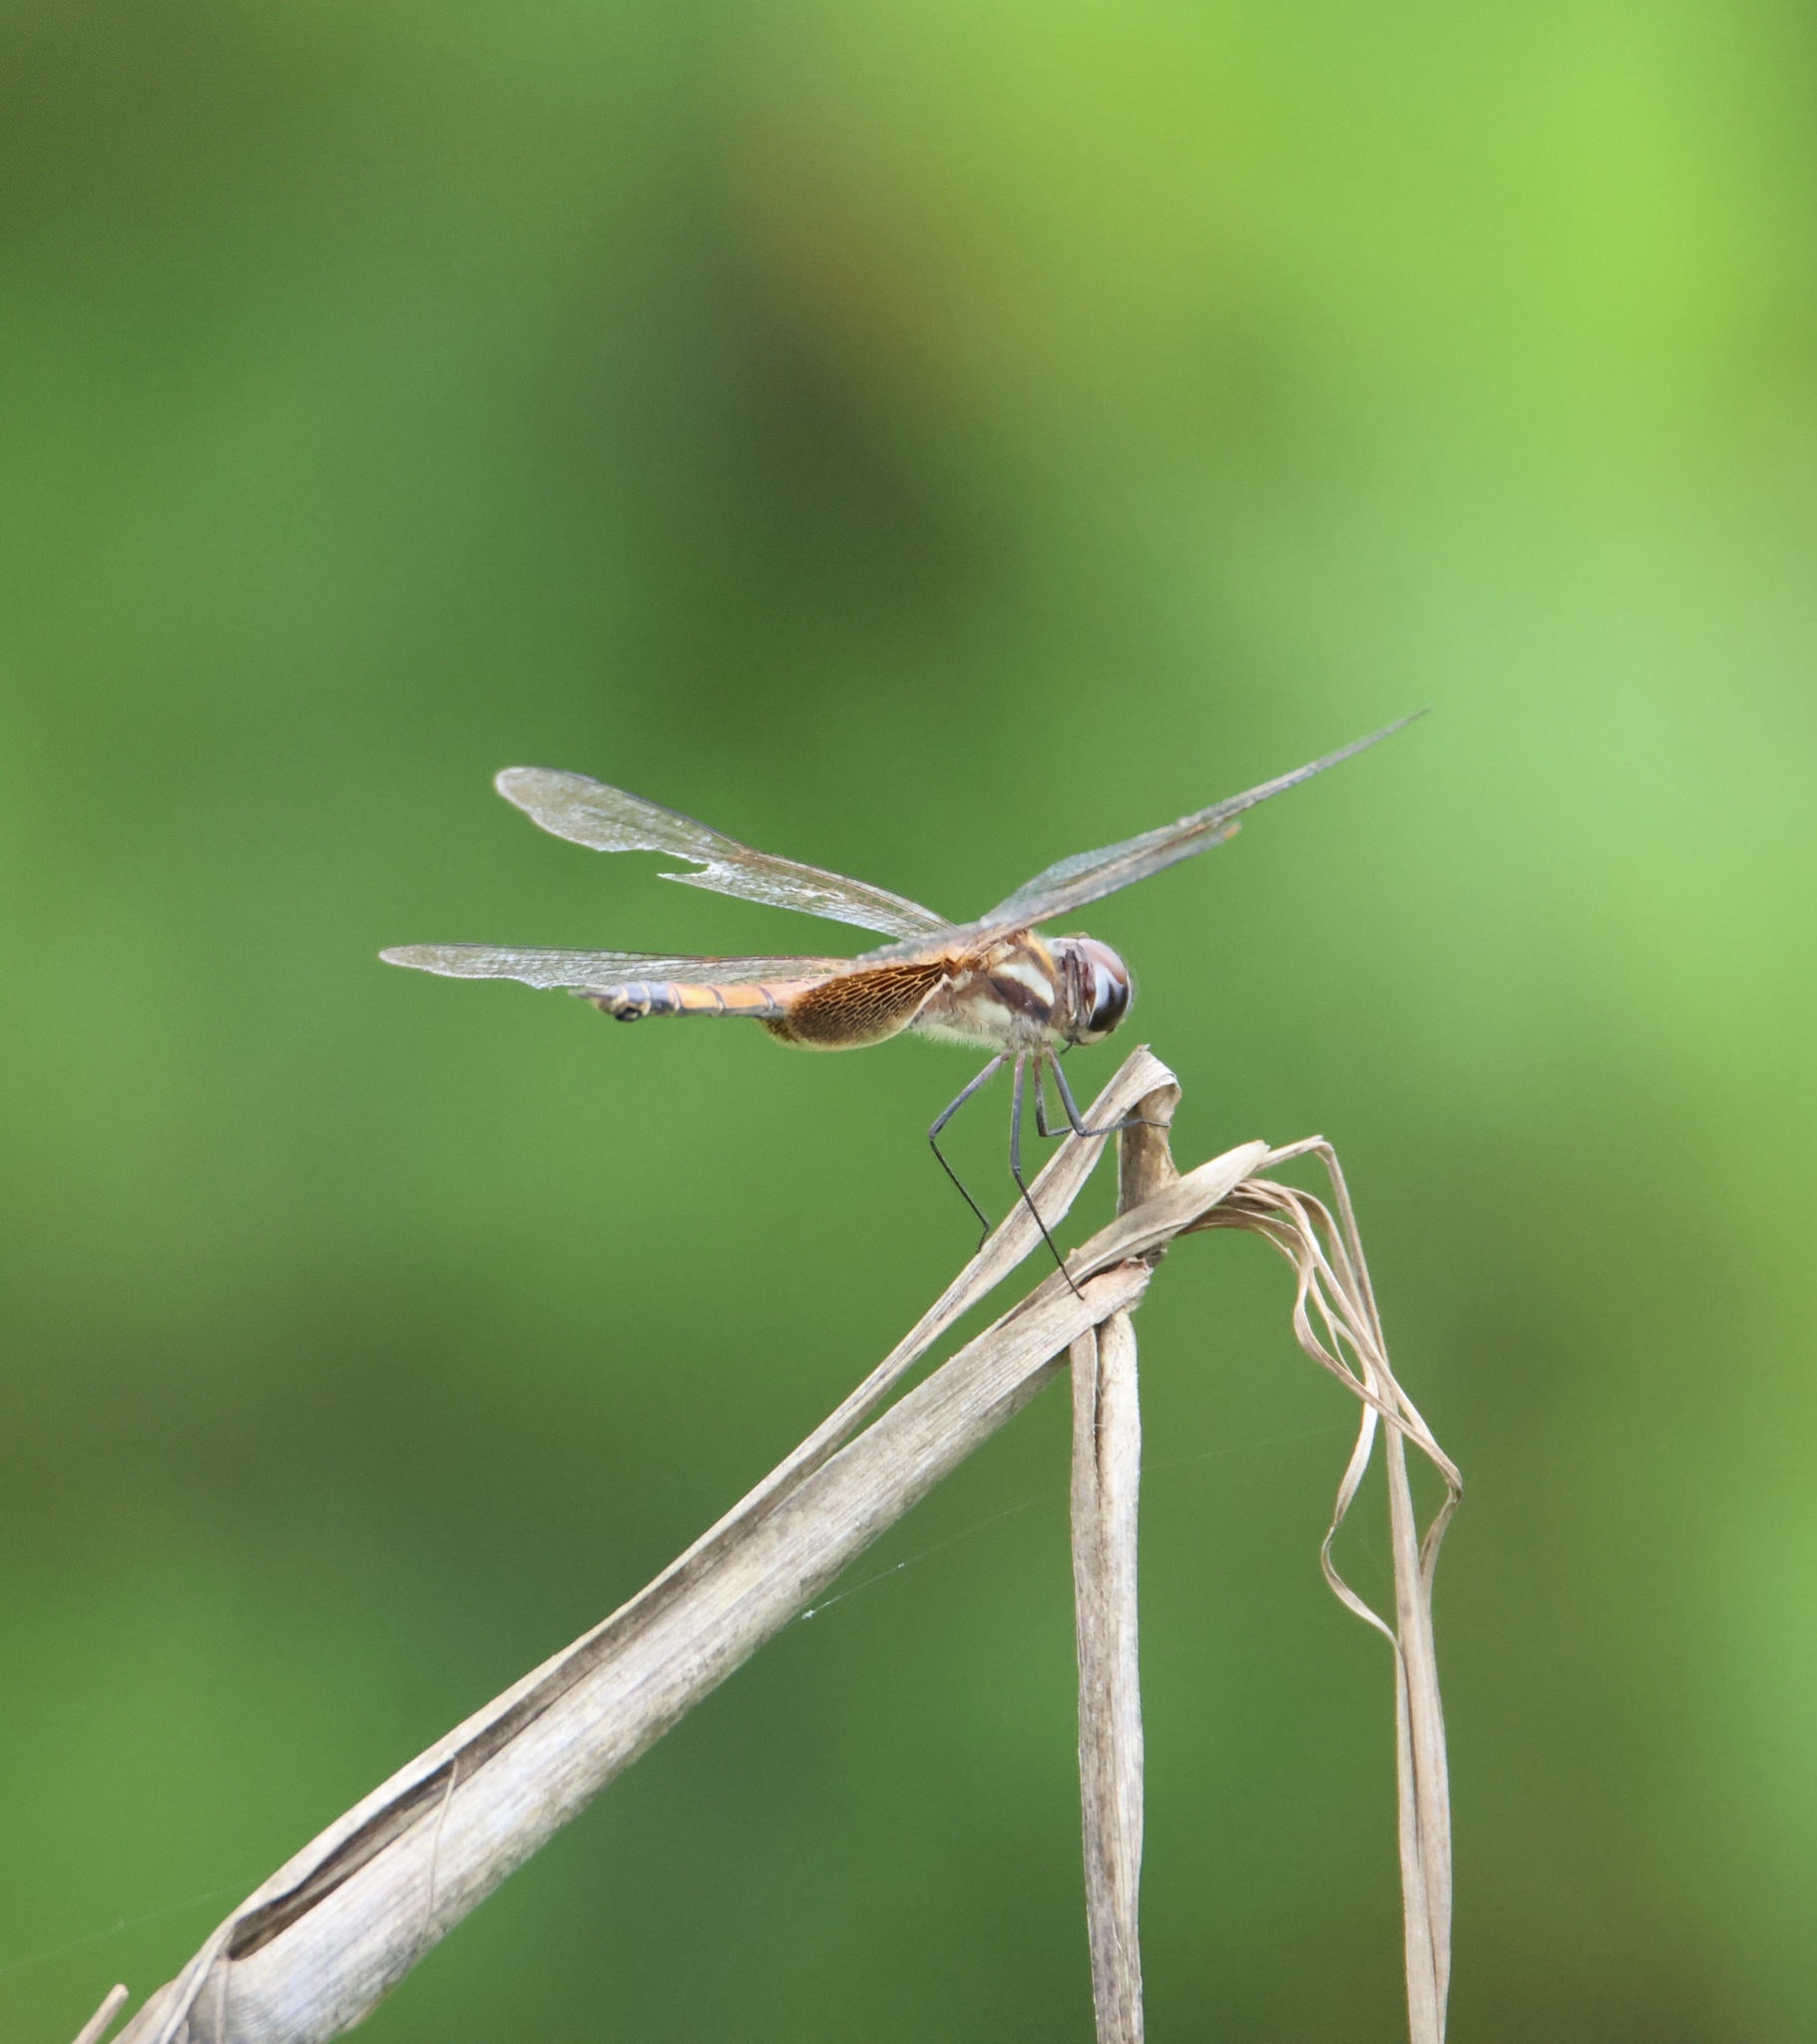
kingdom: Animalia
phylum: Arthropoda
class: Insecta
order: Odonata
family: Libellulidae
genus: Tramea
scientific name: Tramea darwini
